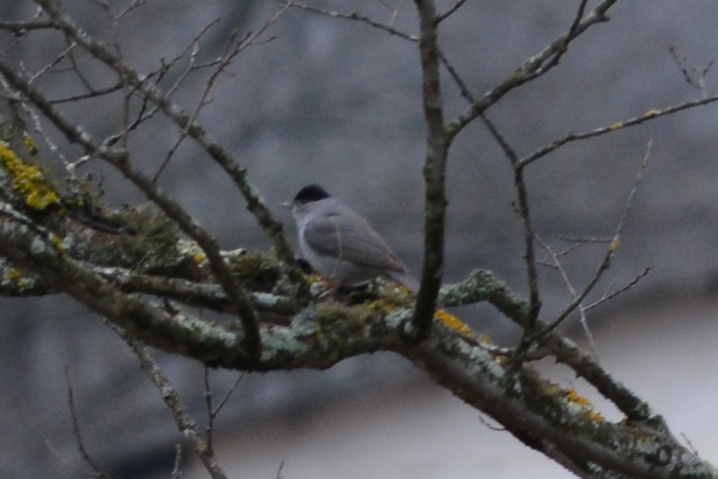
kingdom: Animalia
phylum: Chordata
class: Aves
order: Passeriformes
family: Sylviidae
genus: Sylvia
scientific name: Sylvia atricapilla
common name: Eurasian blackcap
